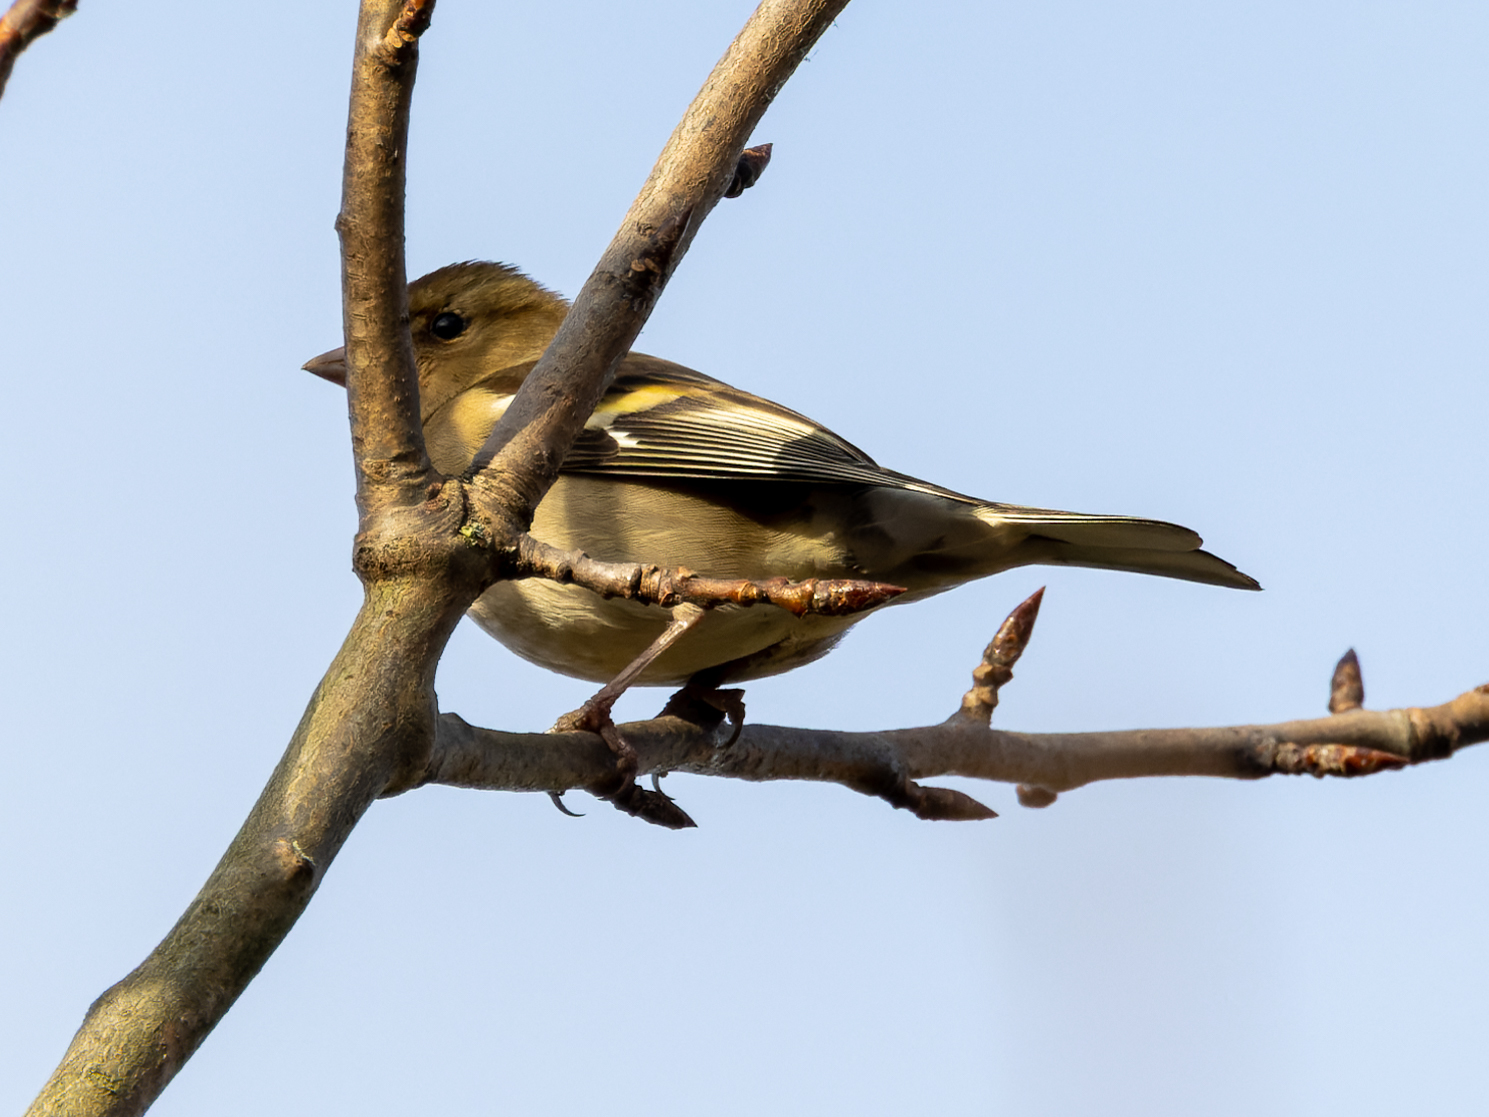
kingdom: Animalia
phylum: Chordata
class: Aves
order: Passeriformes
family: Fringillidae
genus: Fringilla
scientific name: Fringilla coelebs
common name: Common chaffinch
